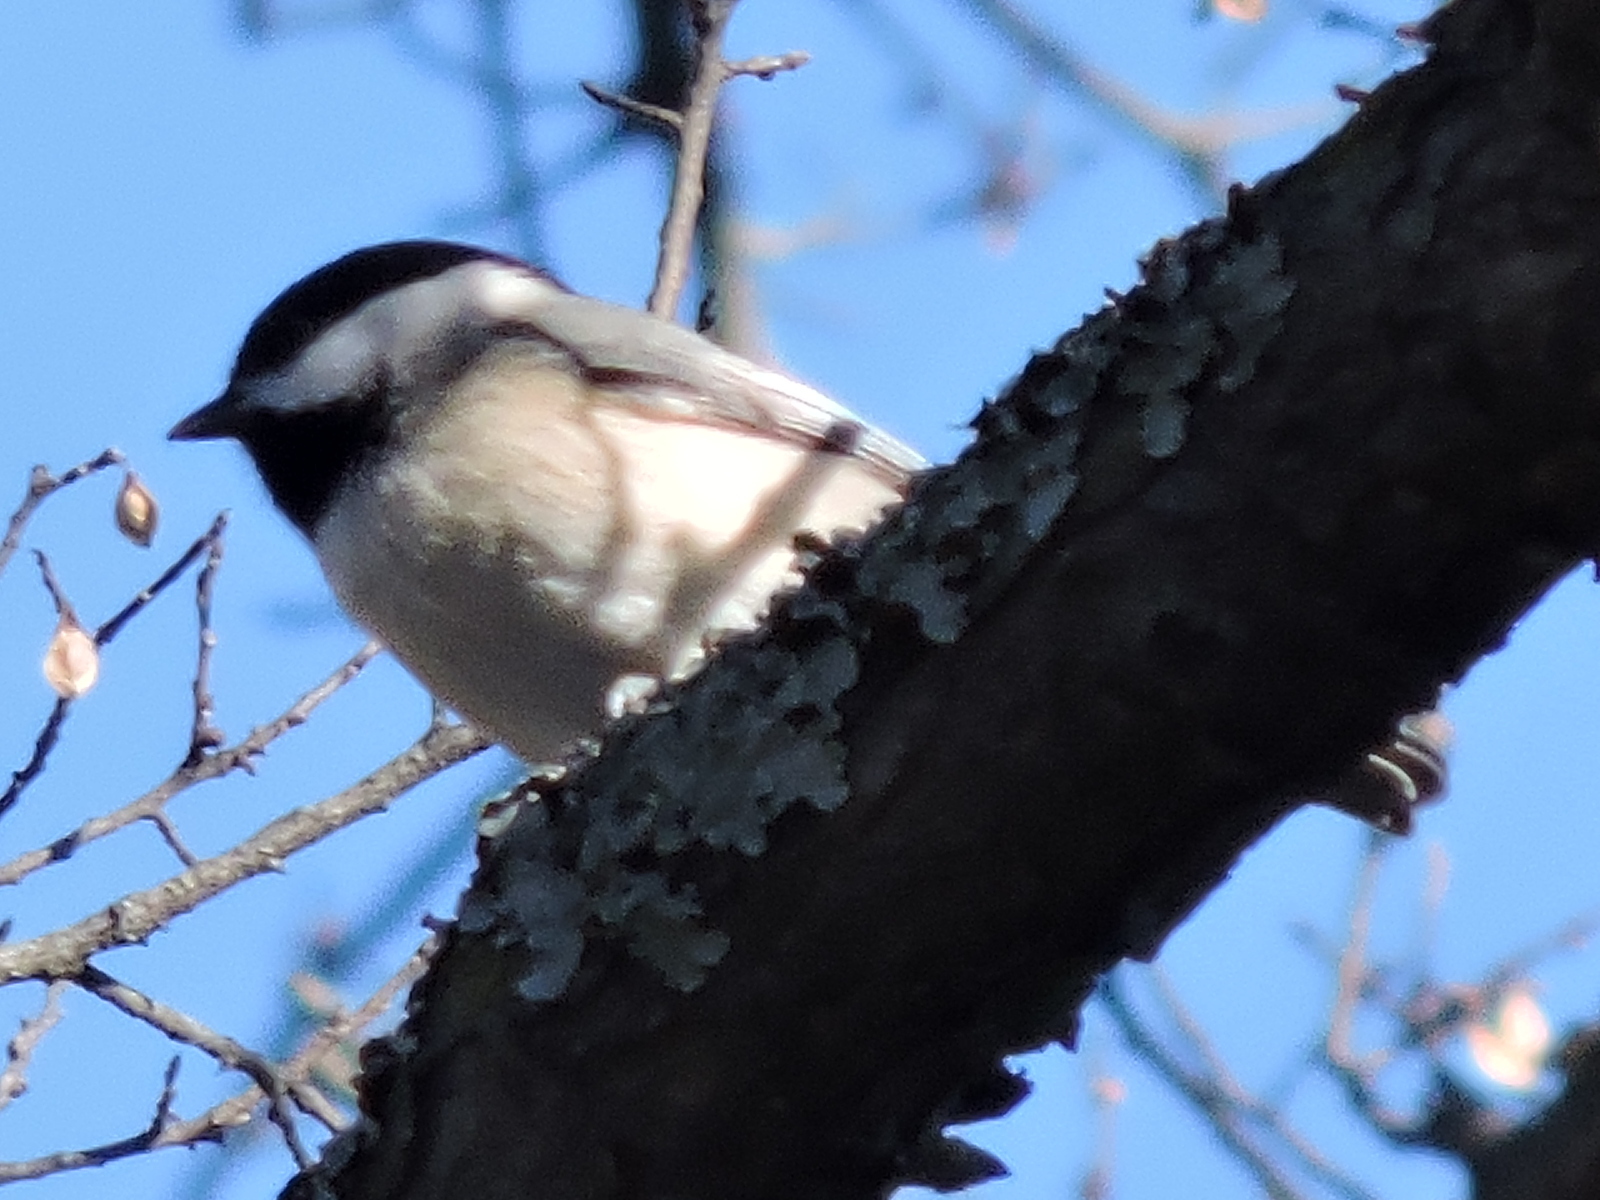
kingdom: Animalia
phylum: Chordata
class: Aves
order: Passeriformes
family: Paridae
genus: Poecile
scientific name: Poecile carolinensis
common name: Carolina chickadee
